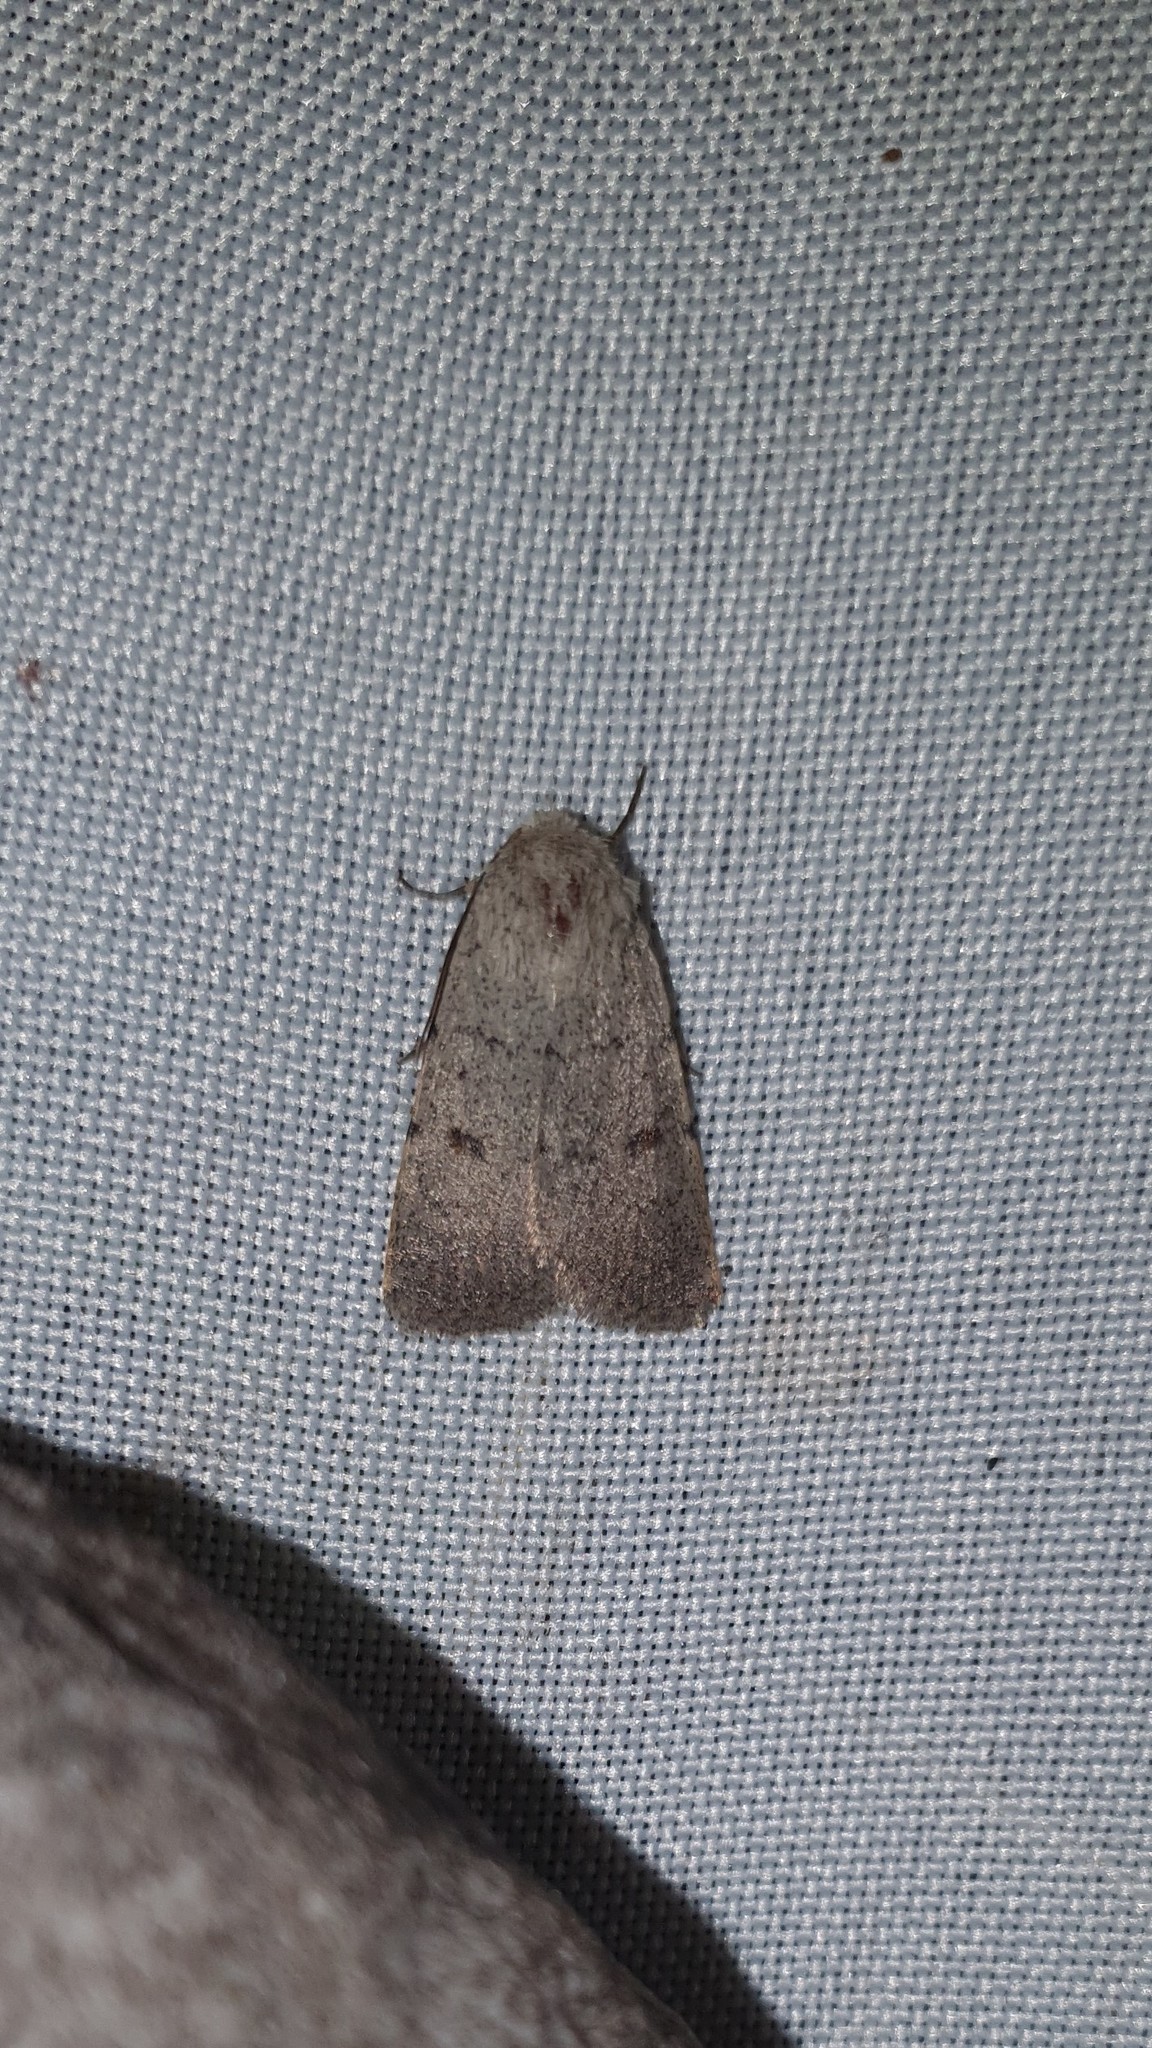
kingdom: Animalia
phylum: Arthropoda
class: Insecta
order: Lepidoptera
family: Noctuidae
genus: Caradrina
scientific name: Caradrina aspersa
